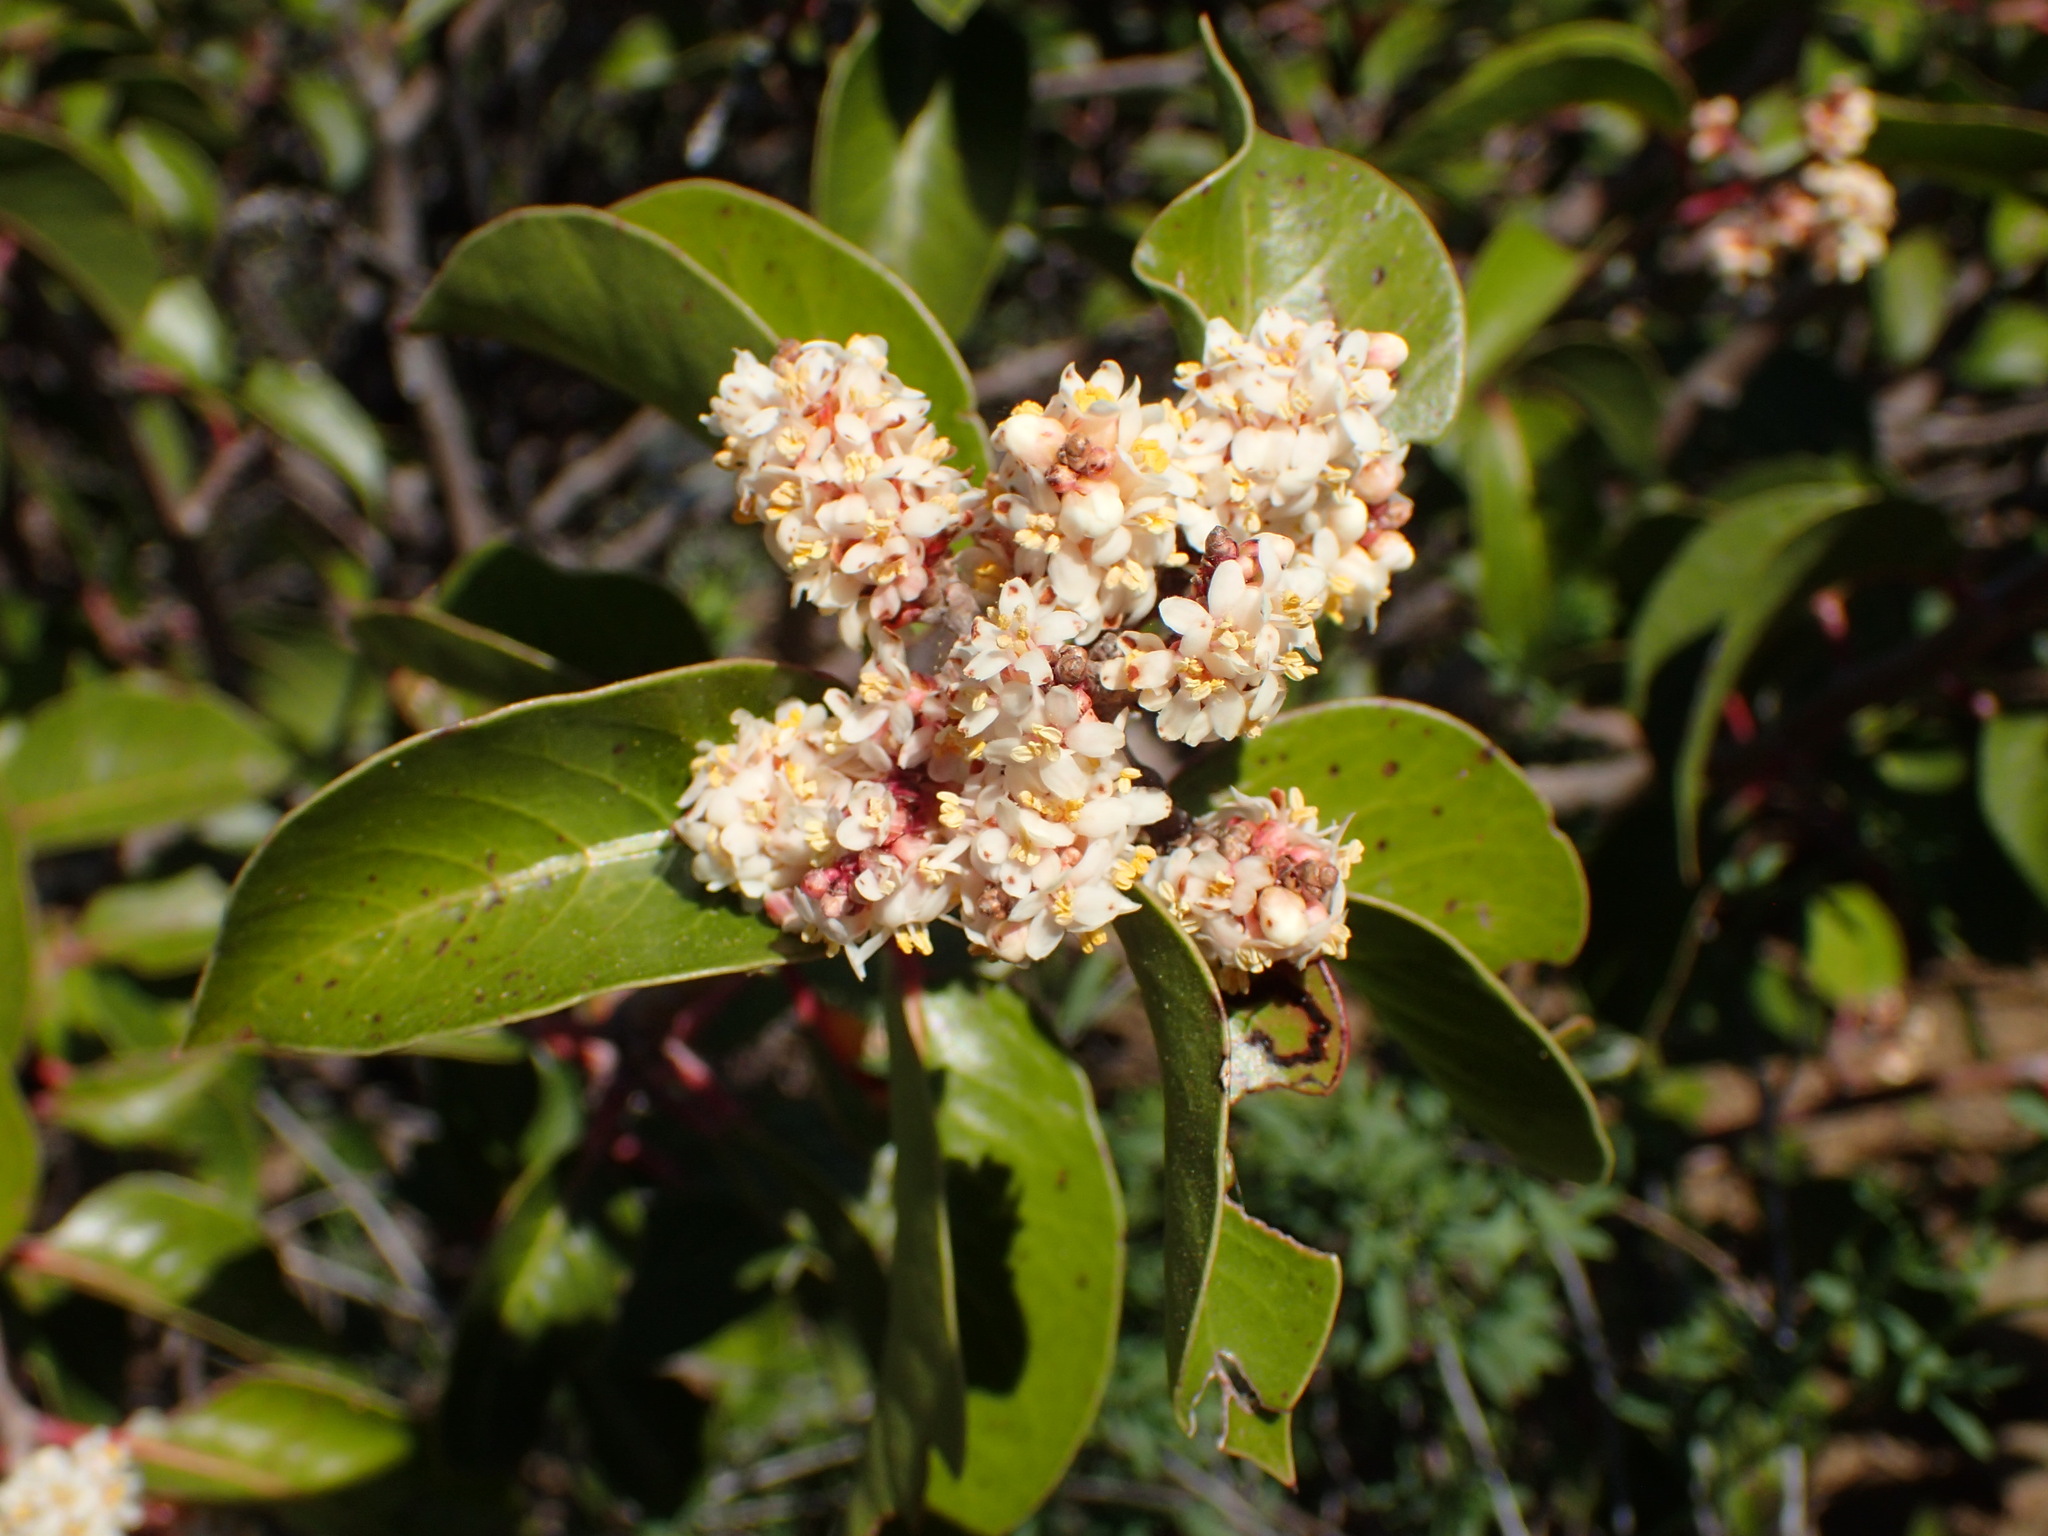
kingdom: Plantae
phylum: Tracheophyta
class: Magnoliopsida
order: Sapindales
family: Anacardiaceae
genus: Rhus
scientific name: Rhus ovata
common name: Sugar sumac
